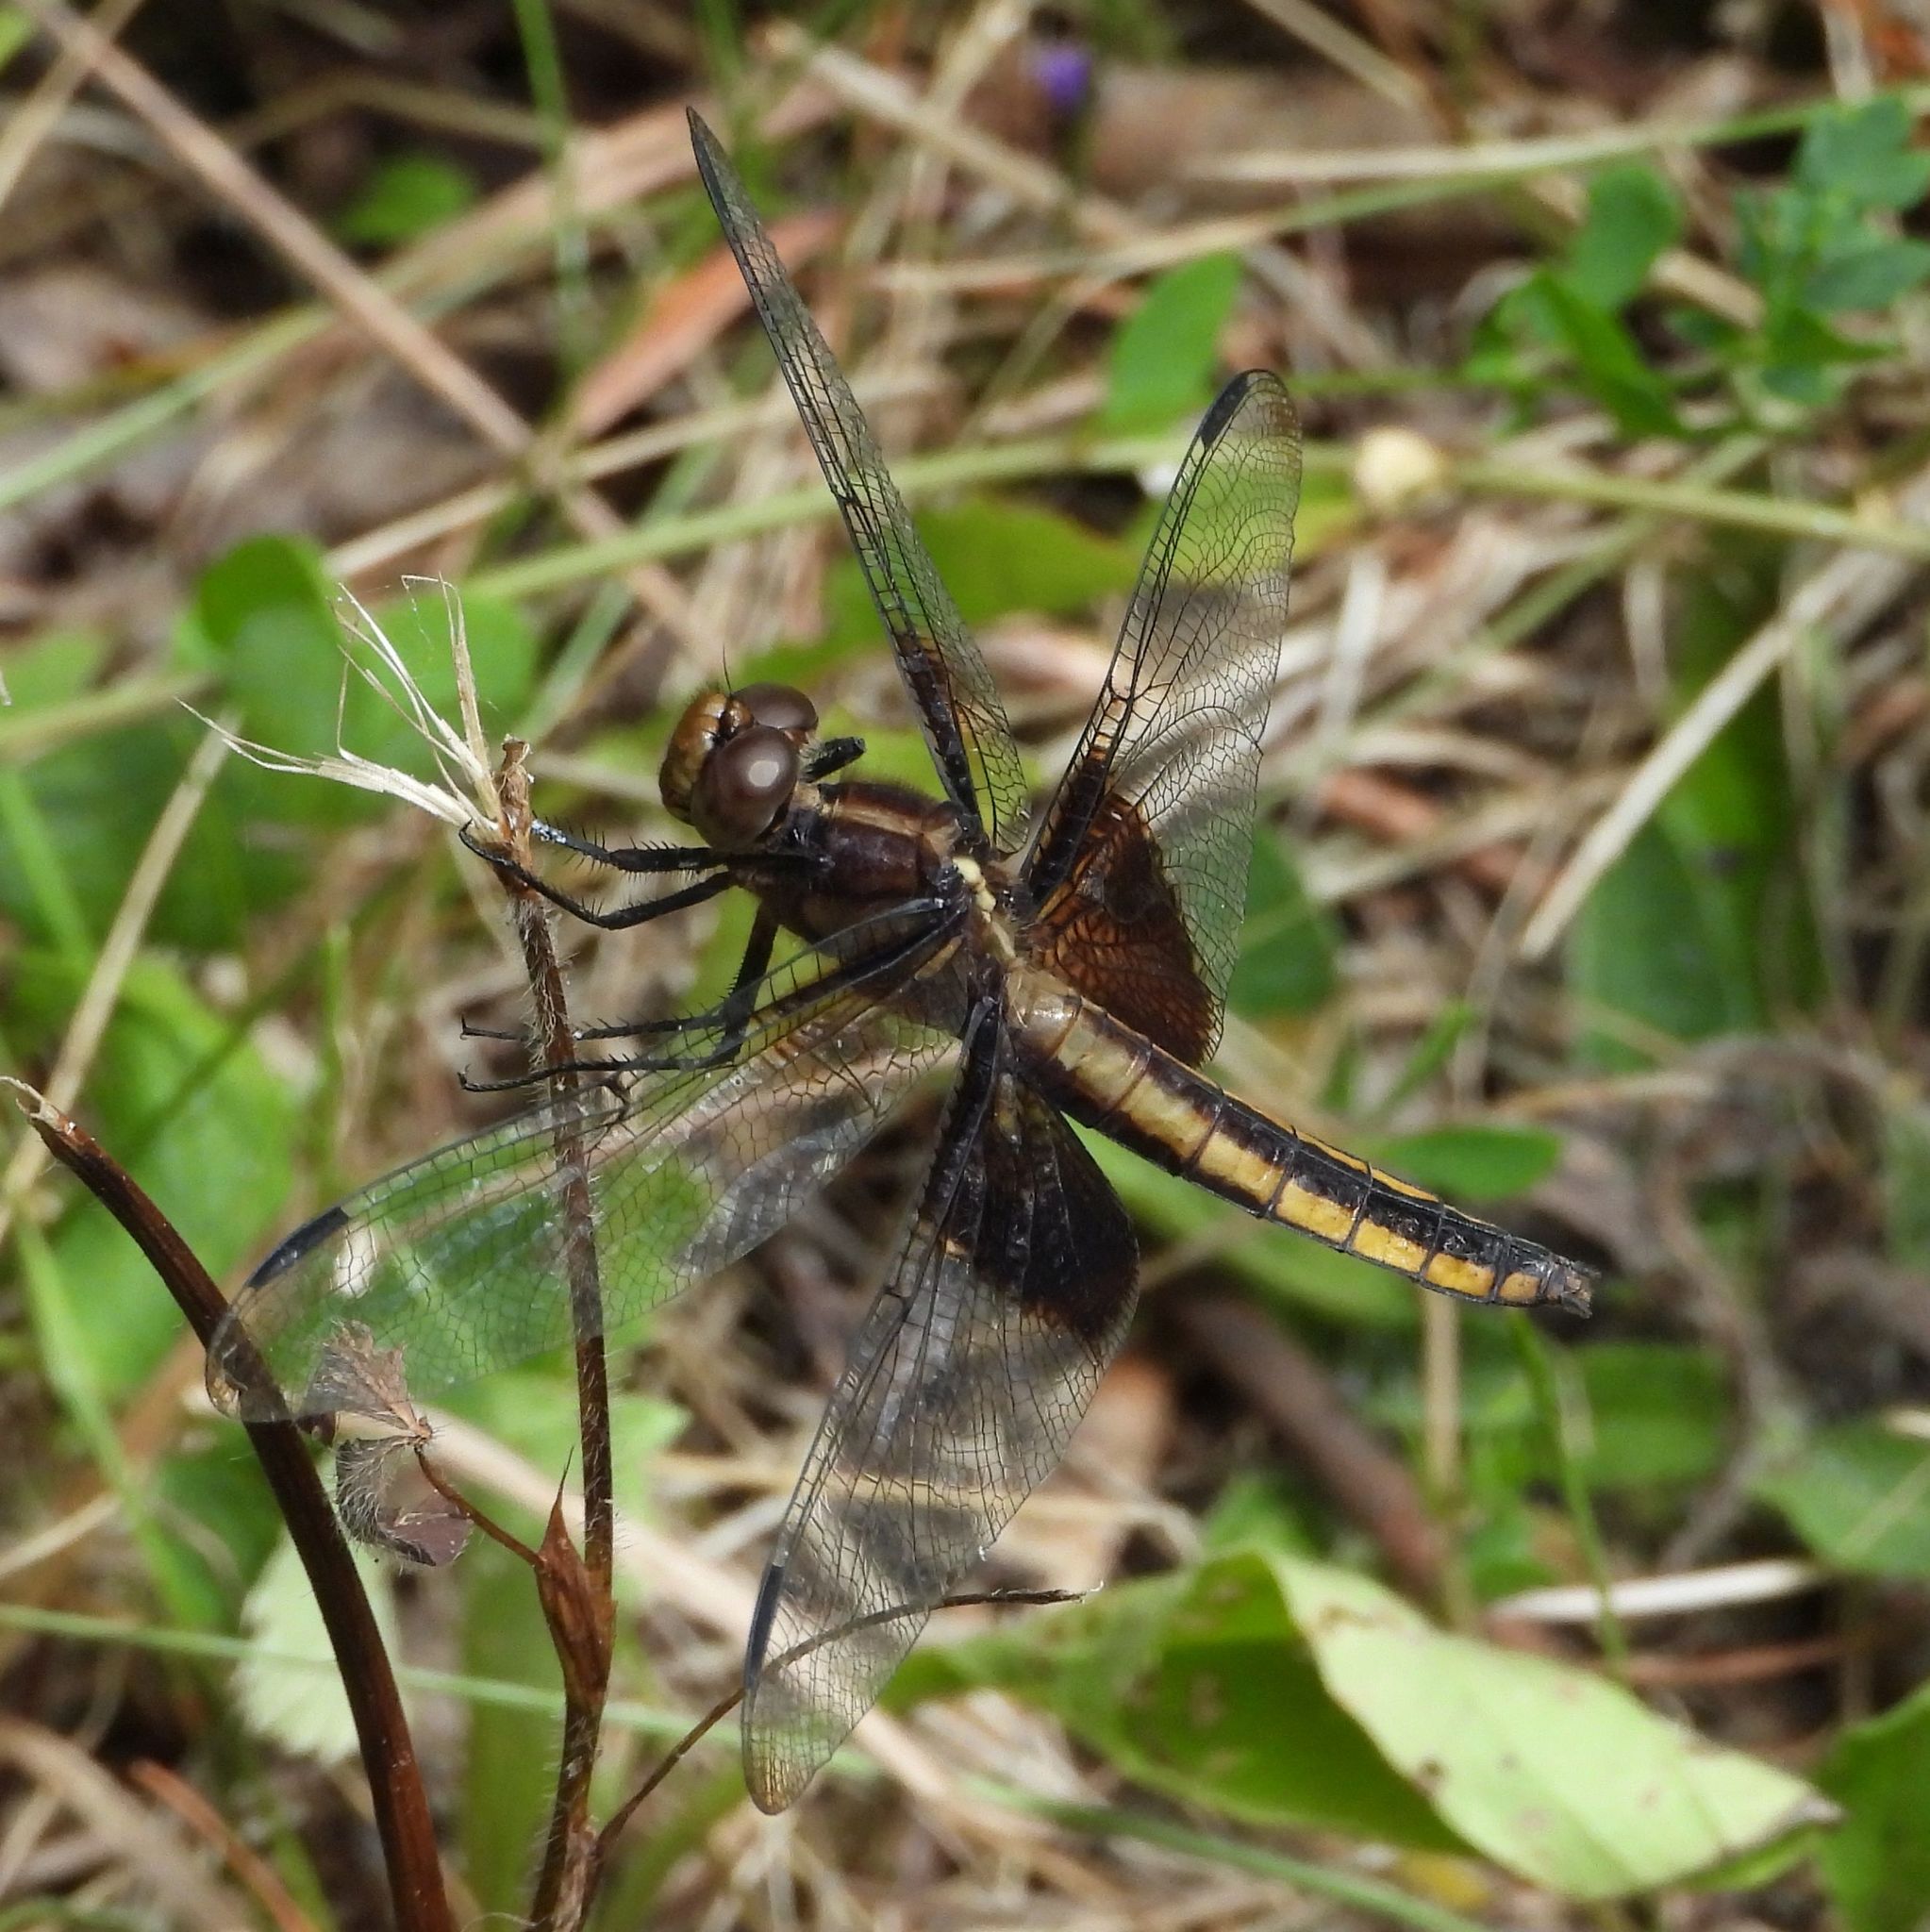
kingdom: Animalia
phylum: Arthropoda
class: Insecta
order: Odonata
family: Libellulidae
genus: Libellula
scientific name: Libellula luctuosa
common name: Widow skimmer
